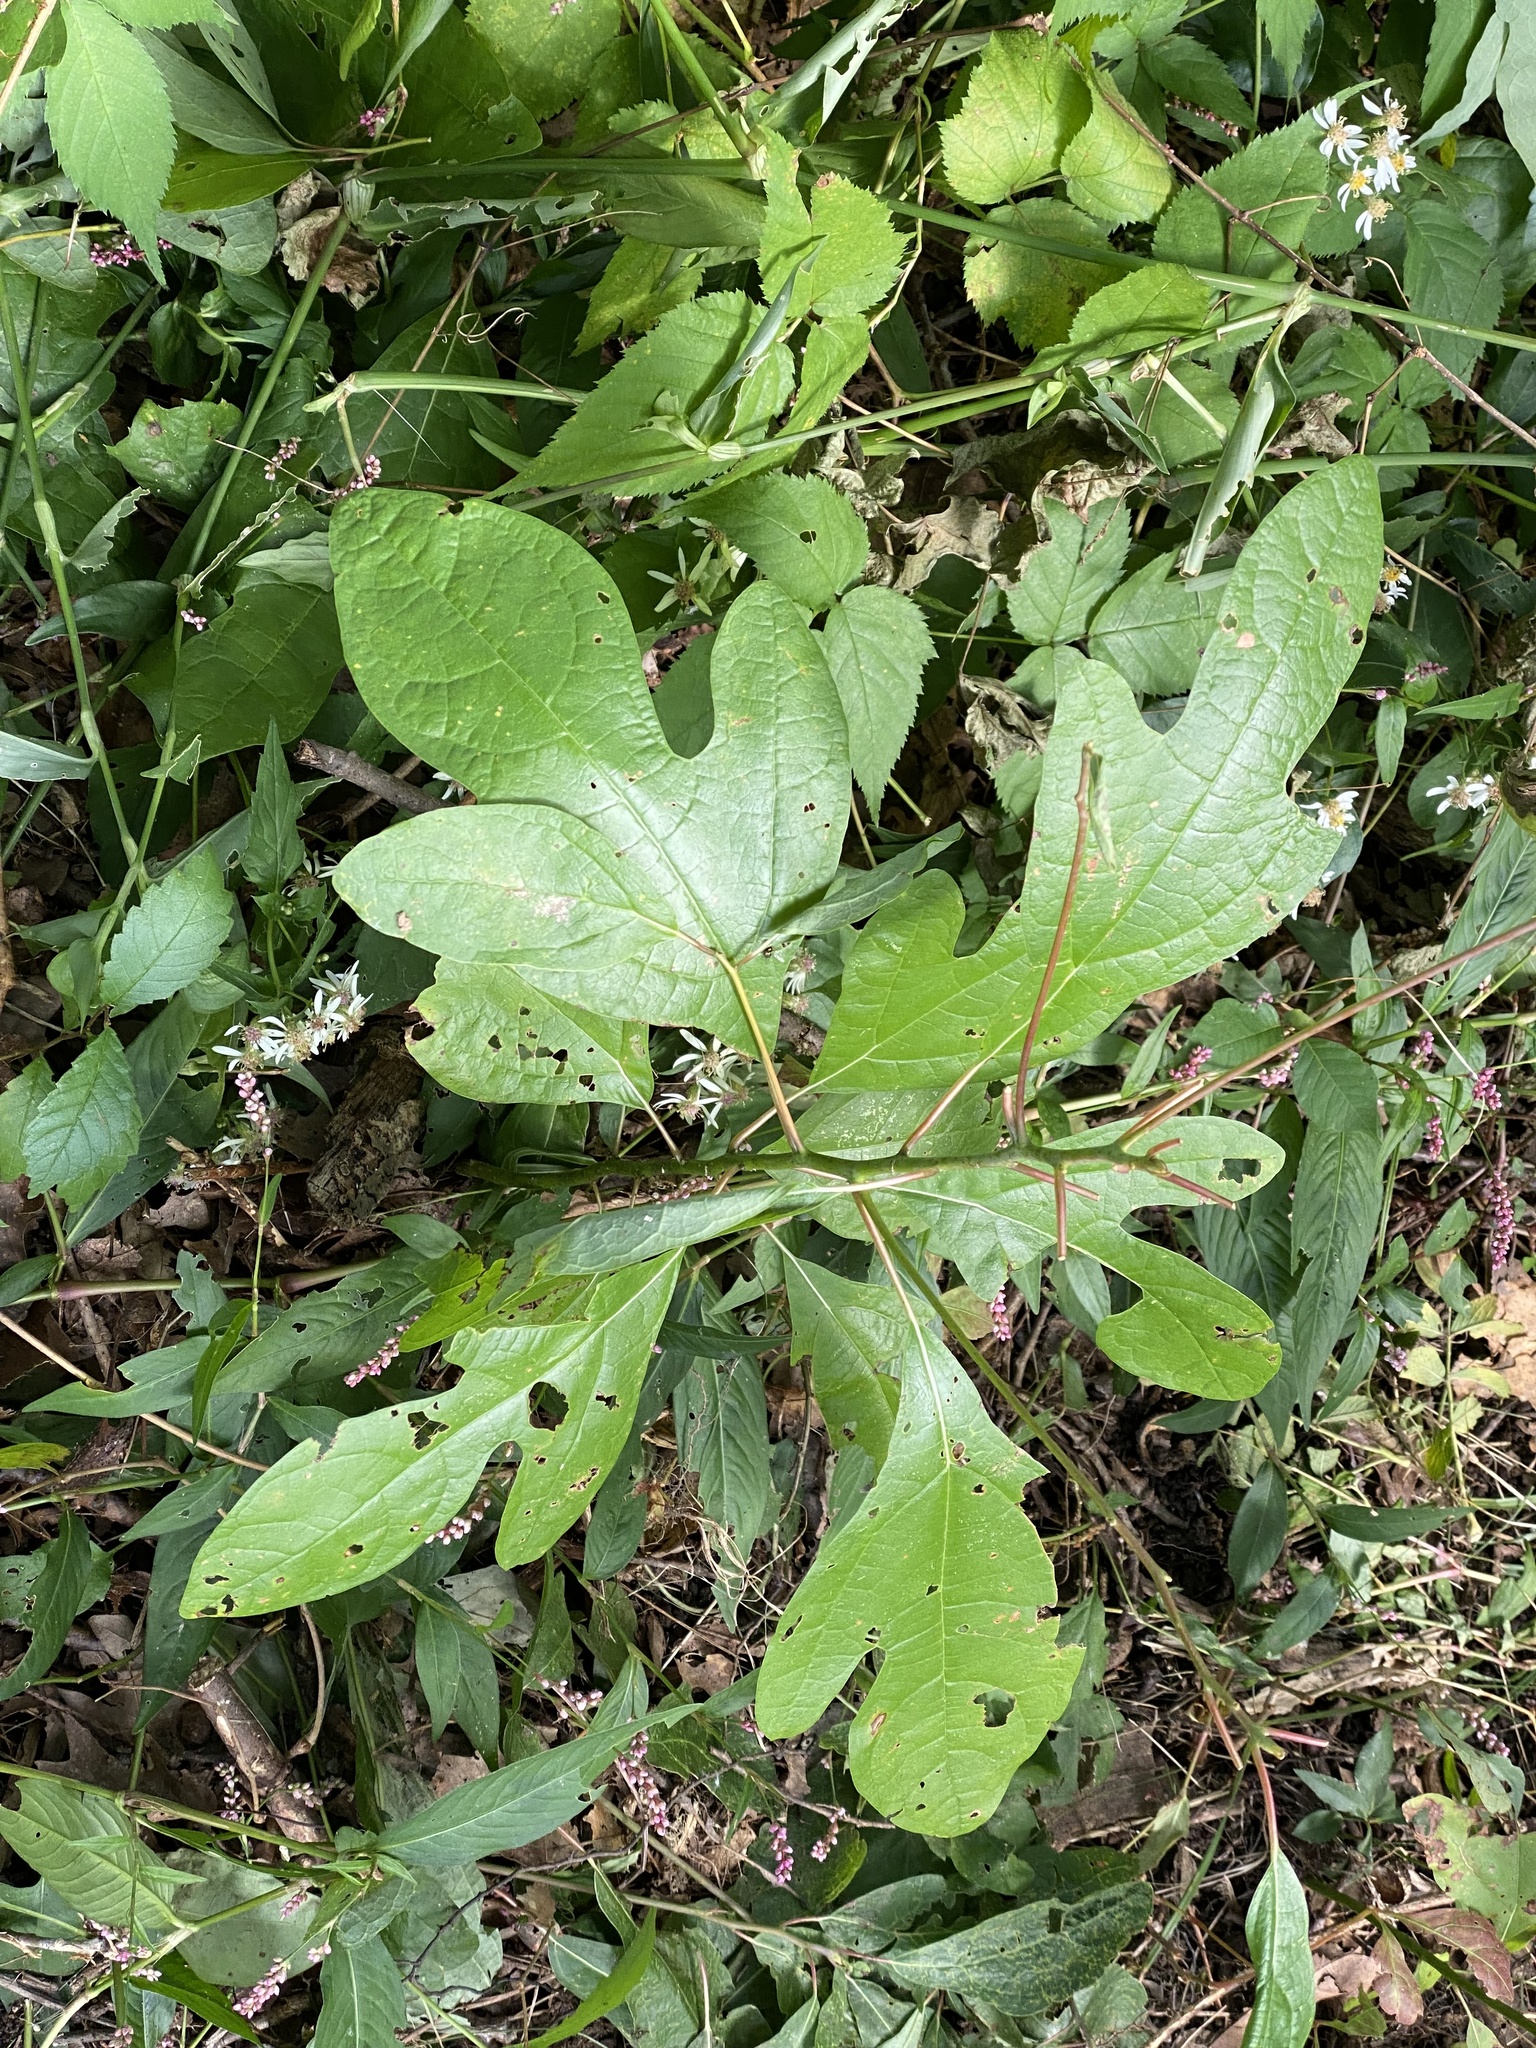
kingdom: Plantae
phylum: Tracheophyta
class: Magnoliopsida
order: Laurales
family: Lauraceae
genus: Sassafras
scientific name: Sassafras albidum
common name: Sassafras
